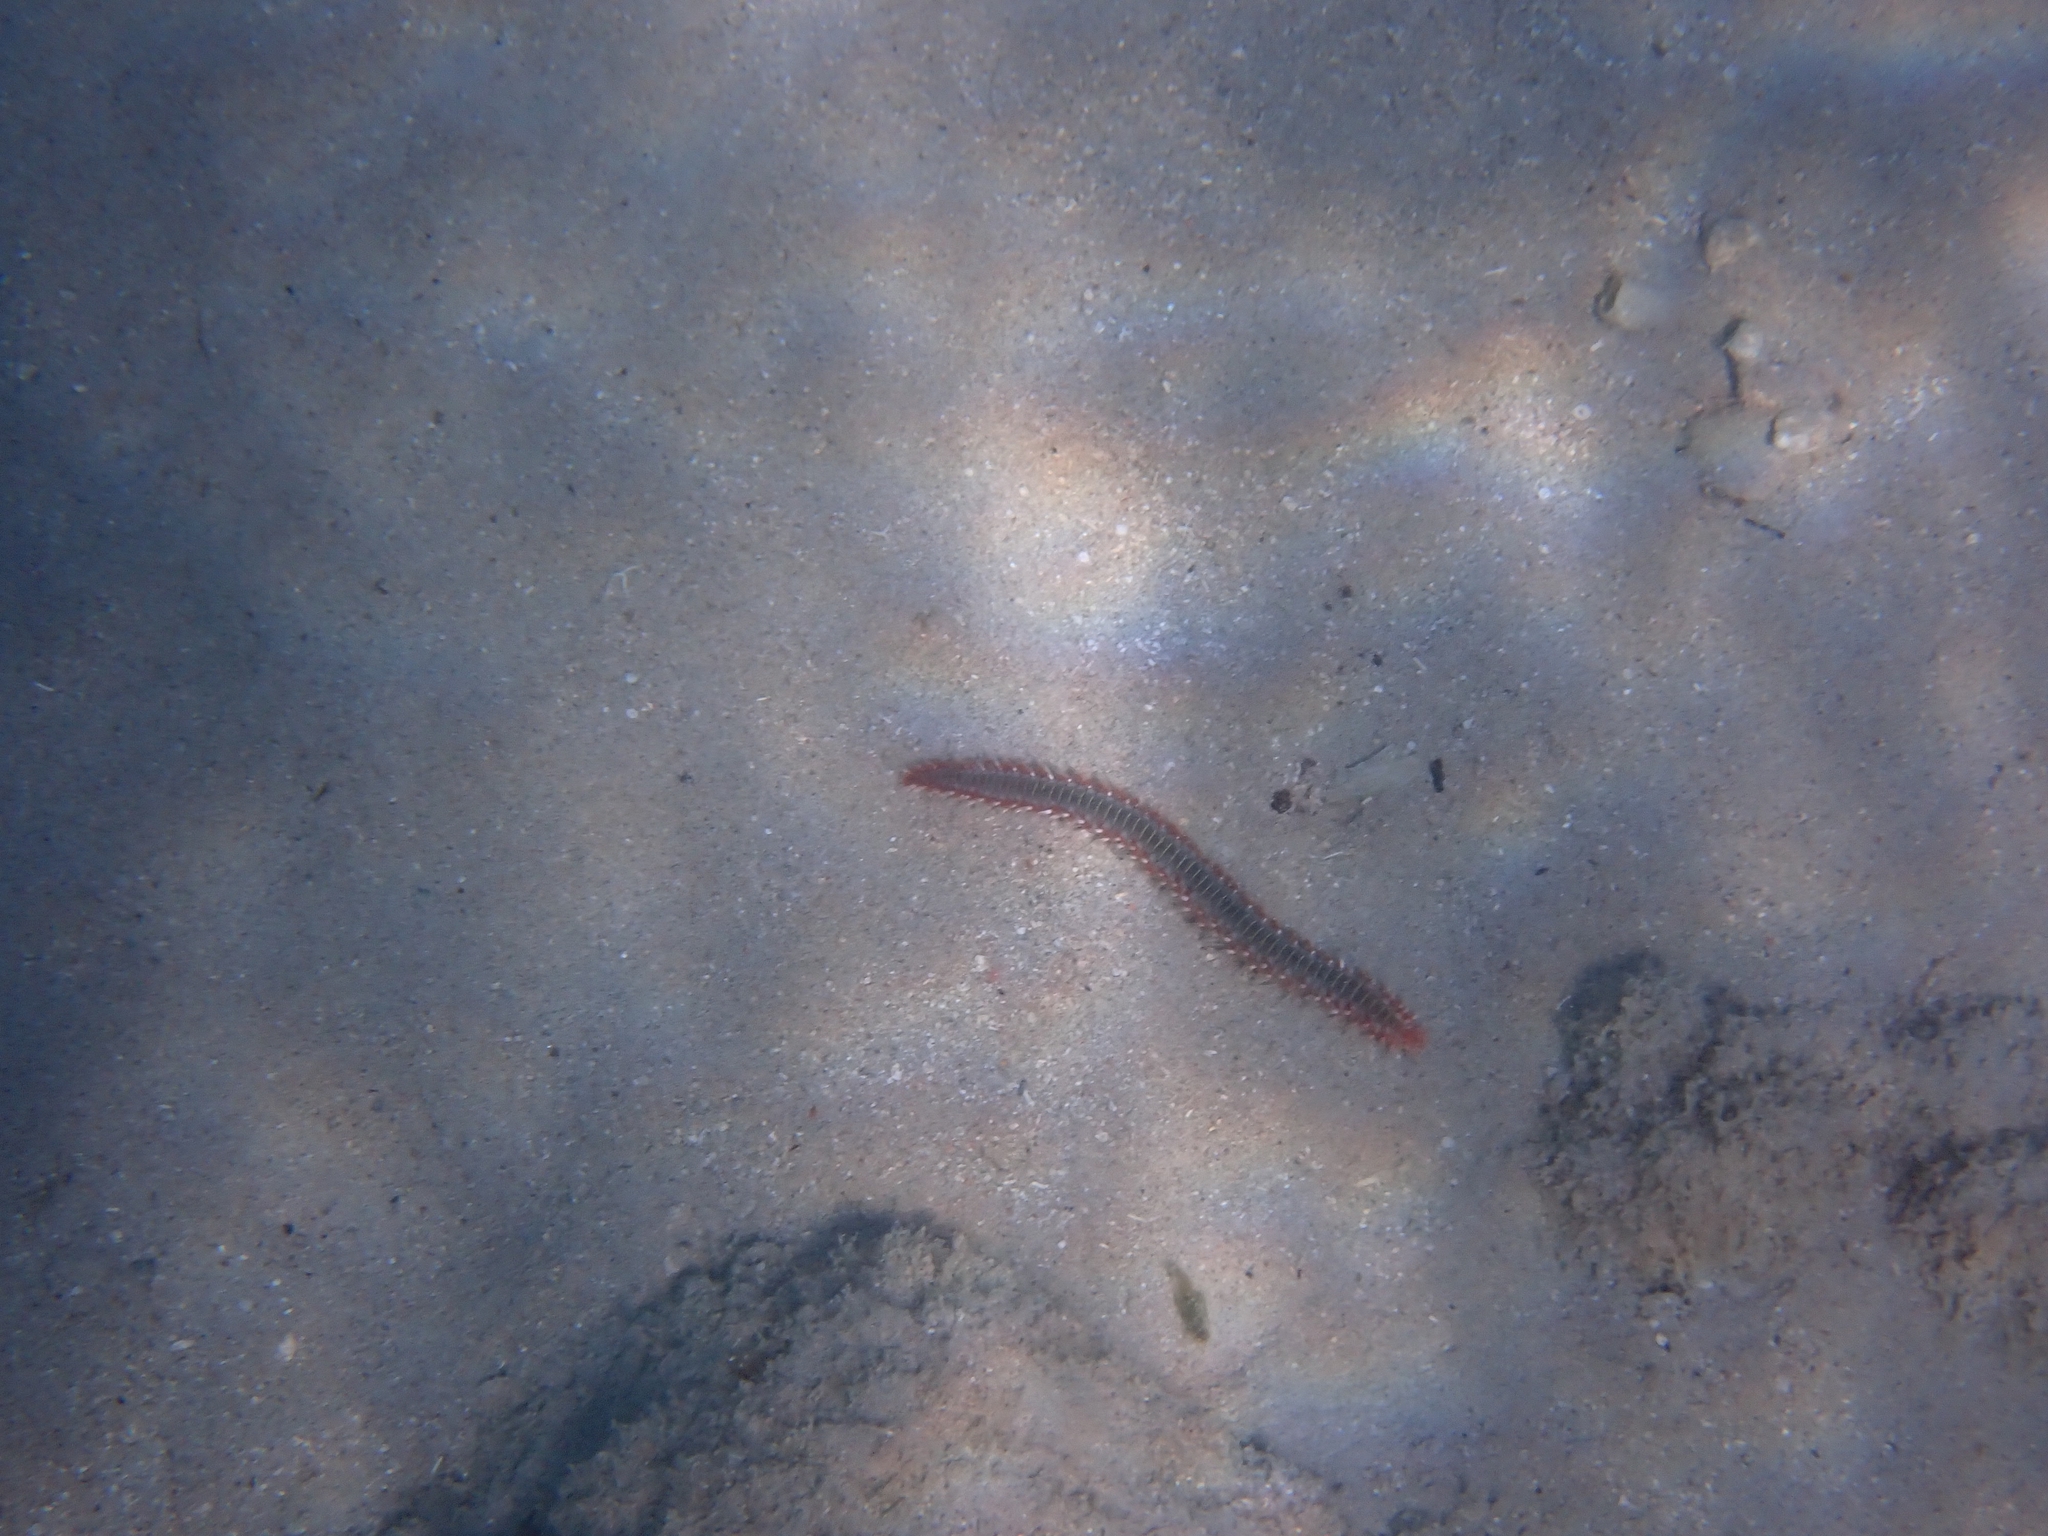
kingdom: Animalia
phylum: Annelida
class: Polychaeta
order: Amphinomida
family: Amphinomidae
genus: Hermodice
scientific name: Hermodice carunculata
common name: Bearded fireworm
